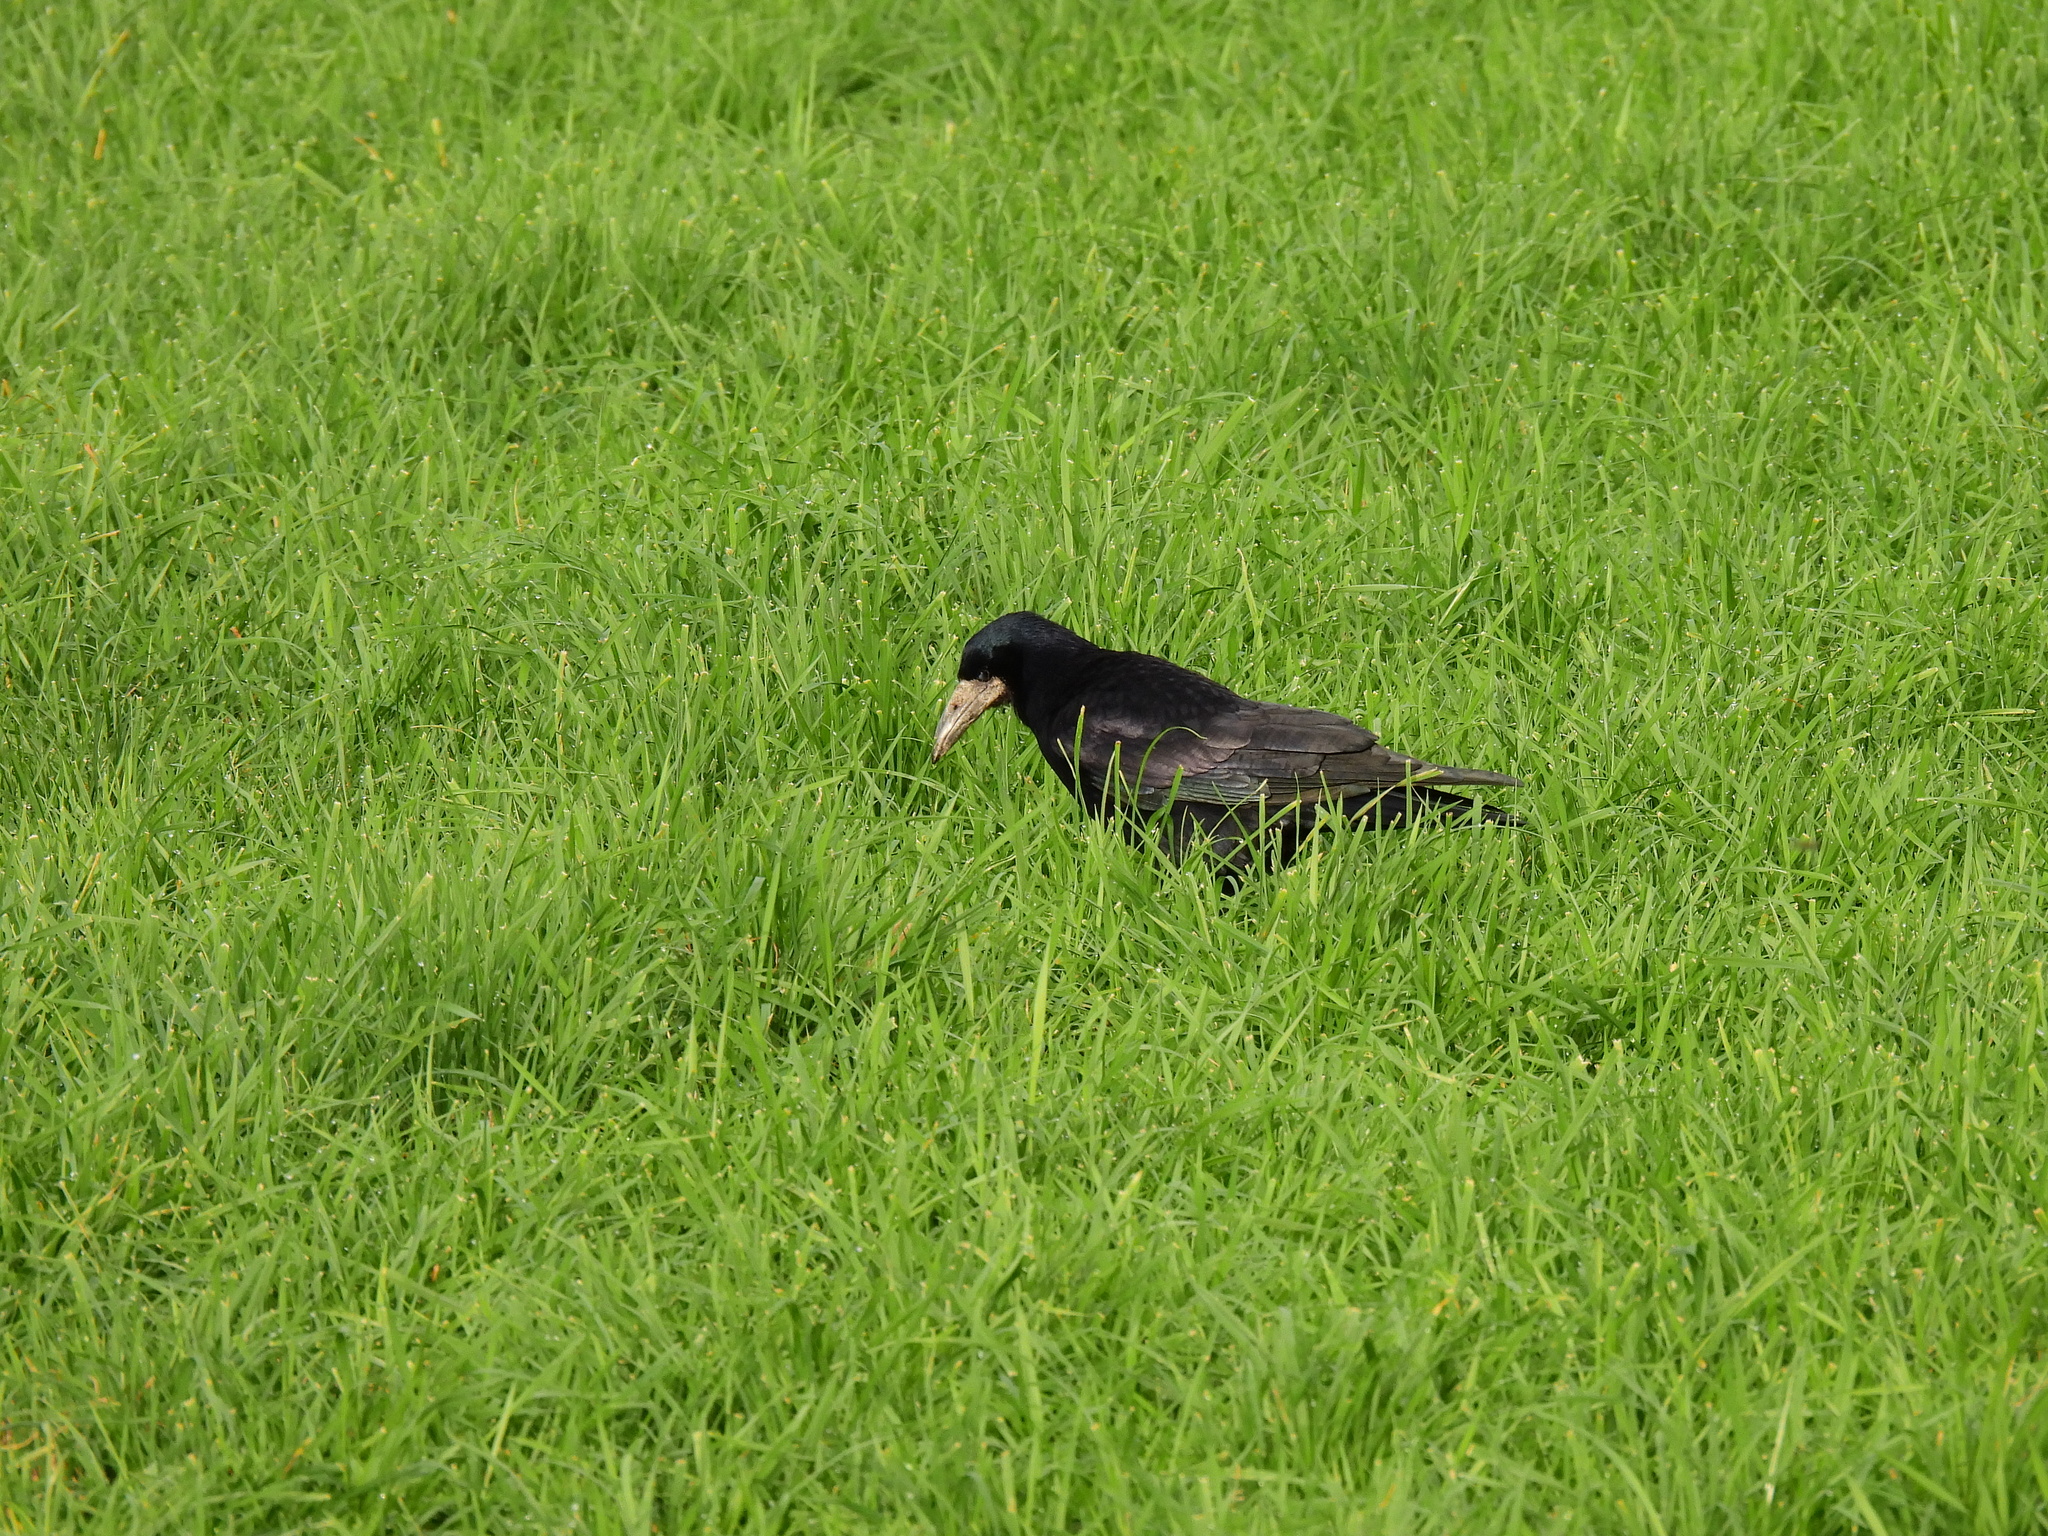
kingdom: Animalia
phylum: Chordata
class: Aves
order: Passeriformes
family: Corvidae
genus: Corvus
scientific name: Corvus frugilegus
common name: Rook
